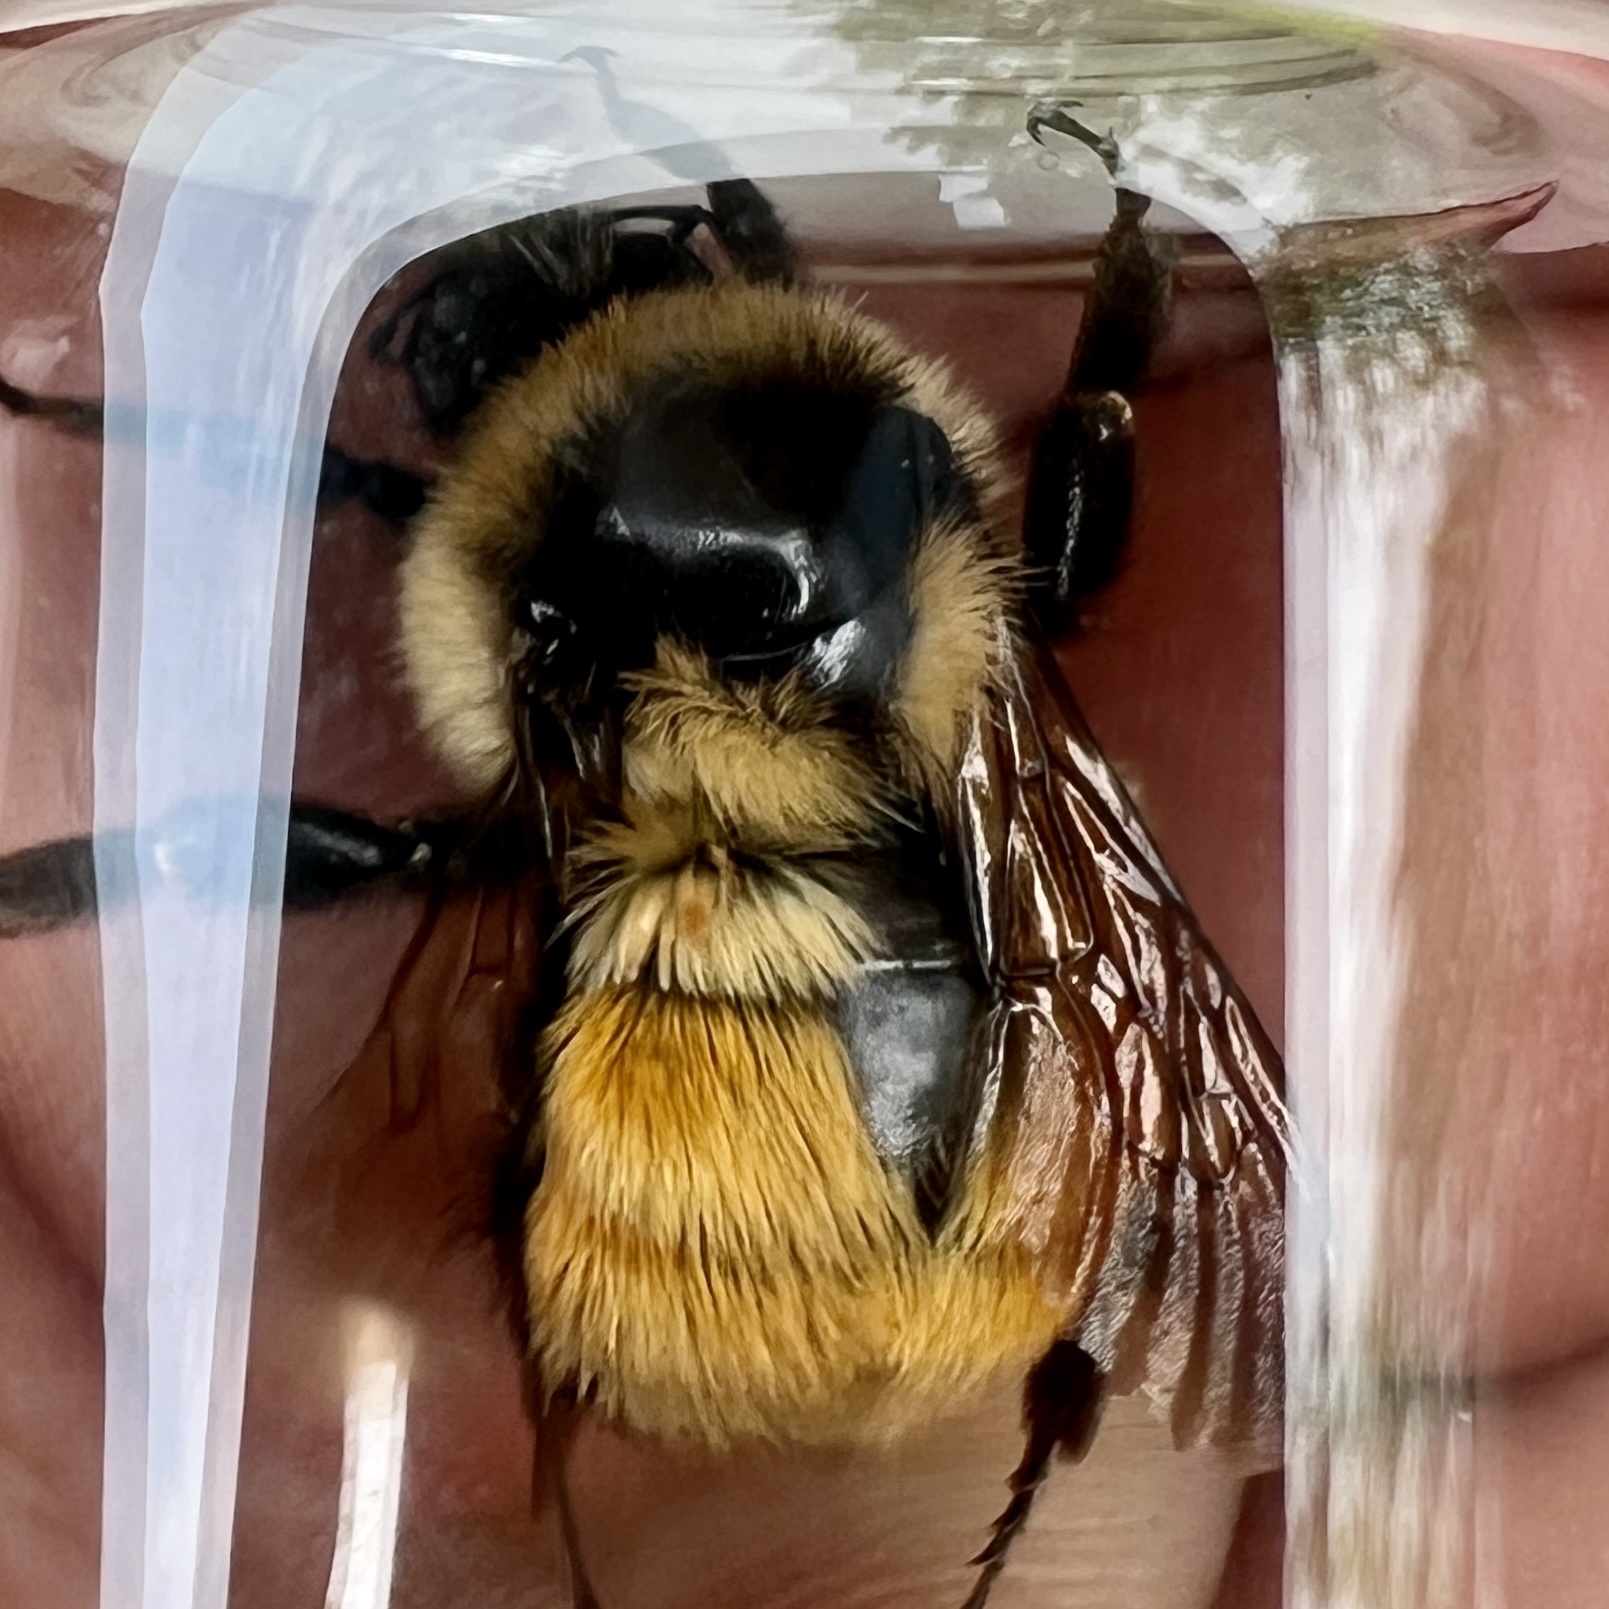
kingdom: Animalia
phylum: Arthropoda
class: Insecta
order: Hymenoptera
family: Apidae
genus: Bombus
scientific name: Bombus ternarius
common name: Tri-colored bumble bee
